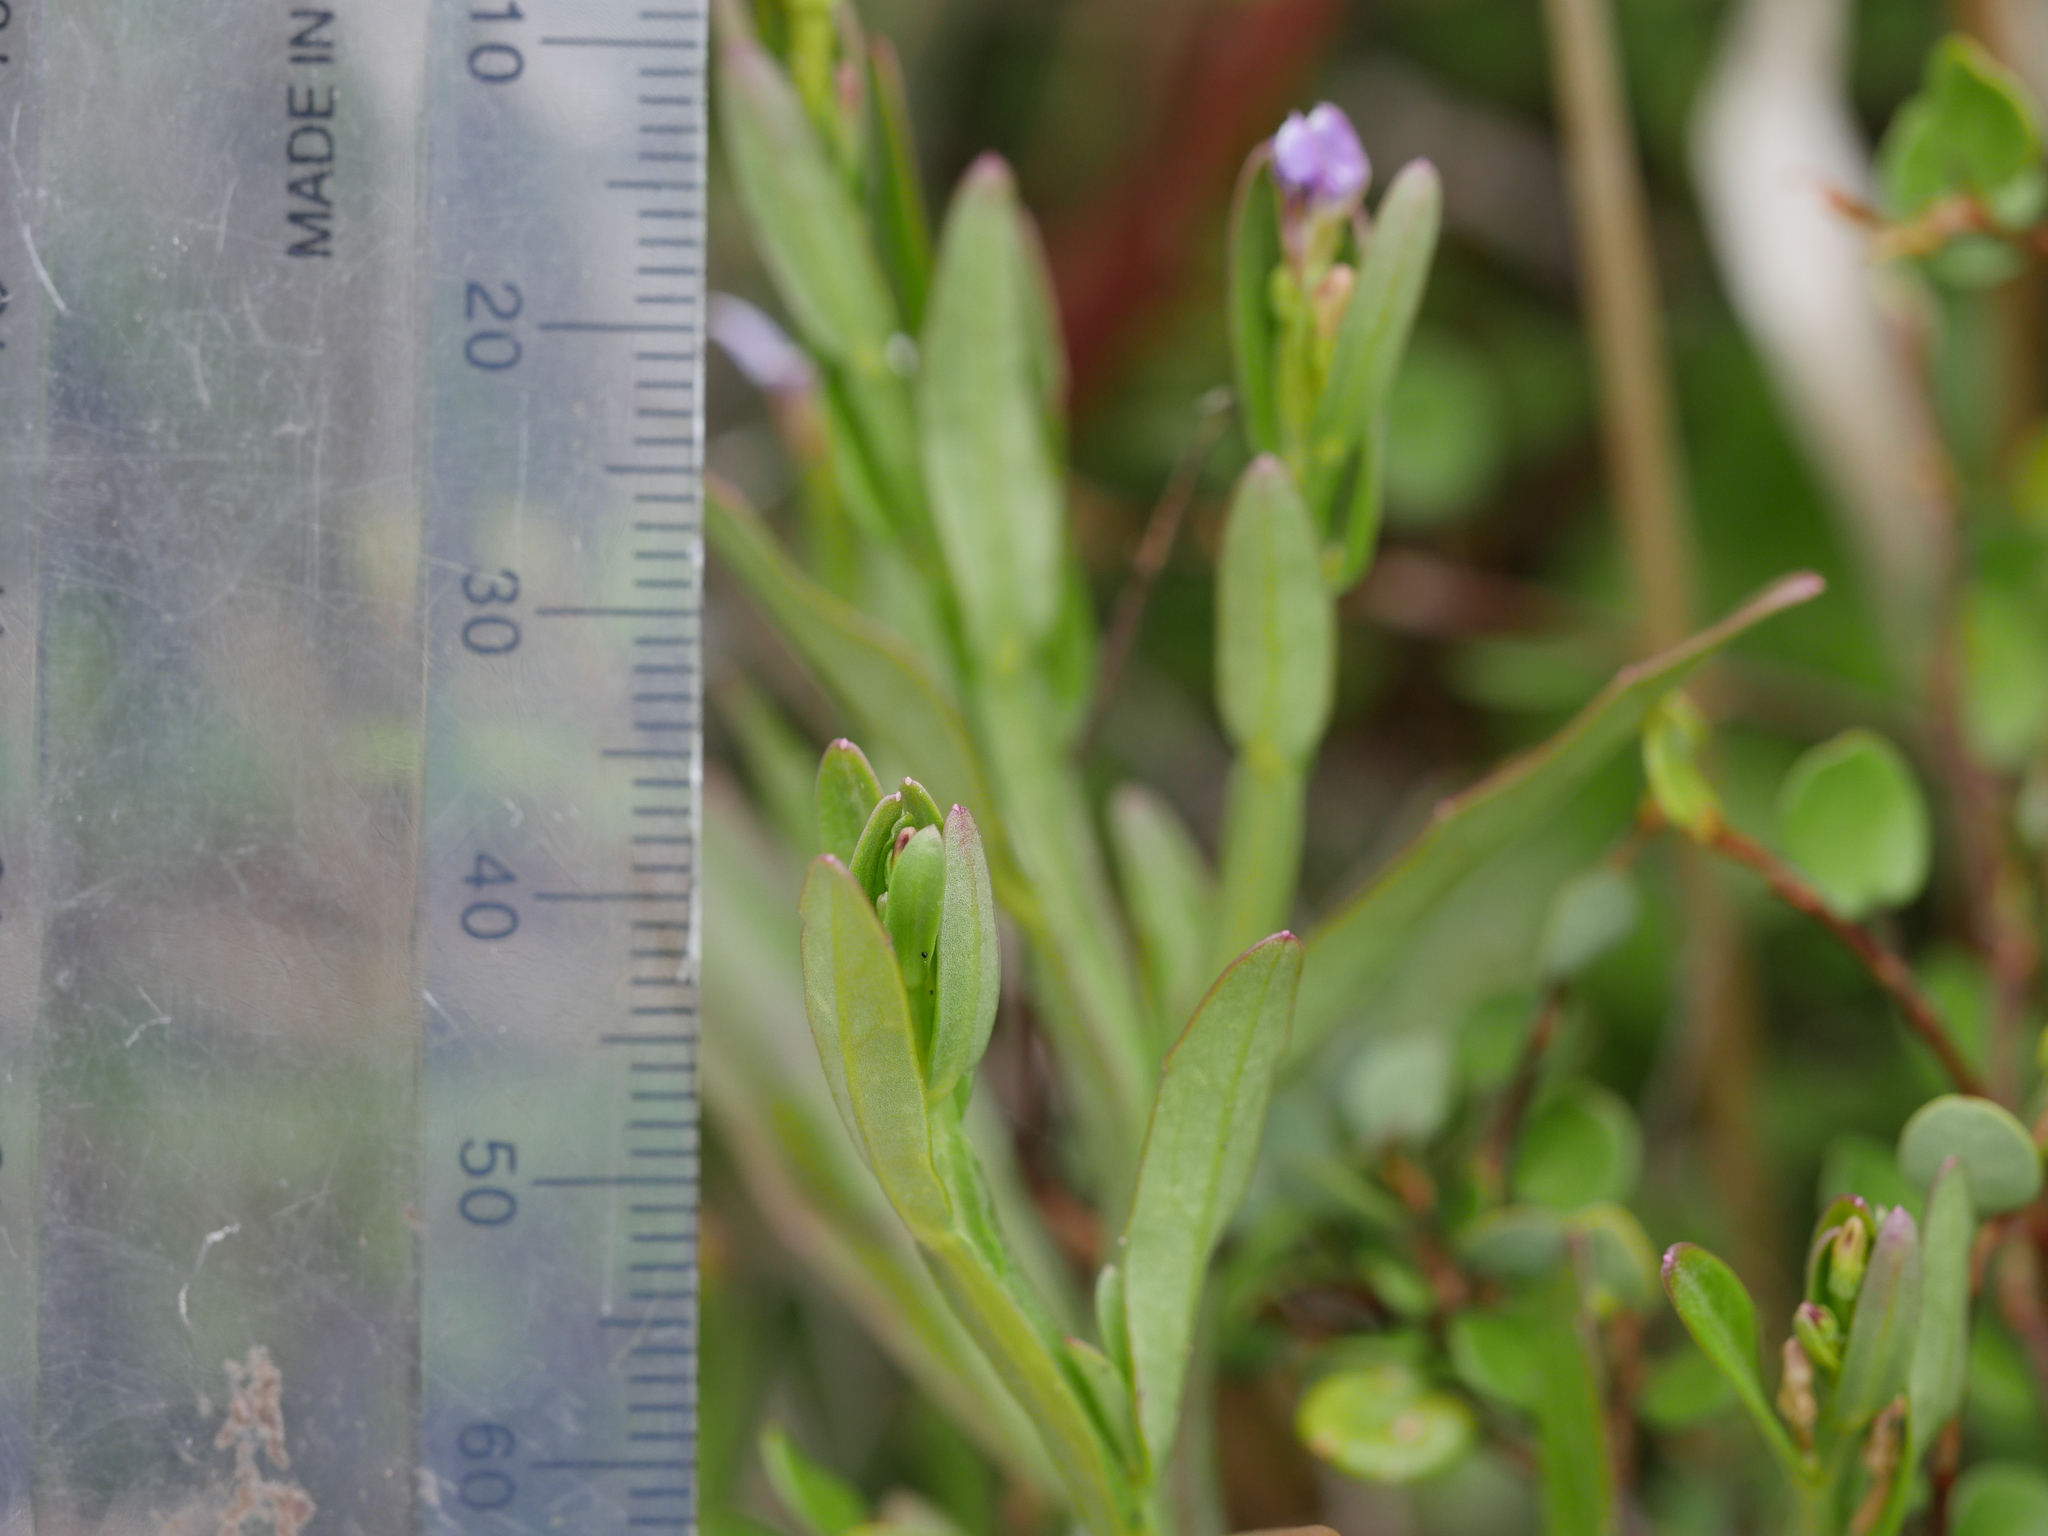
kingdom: Plantae
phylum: Tracheophyta
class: Magnoliopsida
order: Asterales
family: Campanulaceae
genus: Lobelia
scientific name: Lobelia anceps
